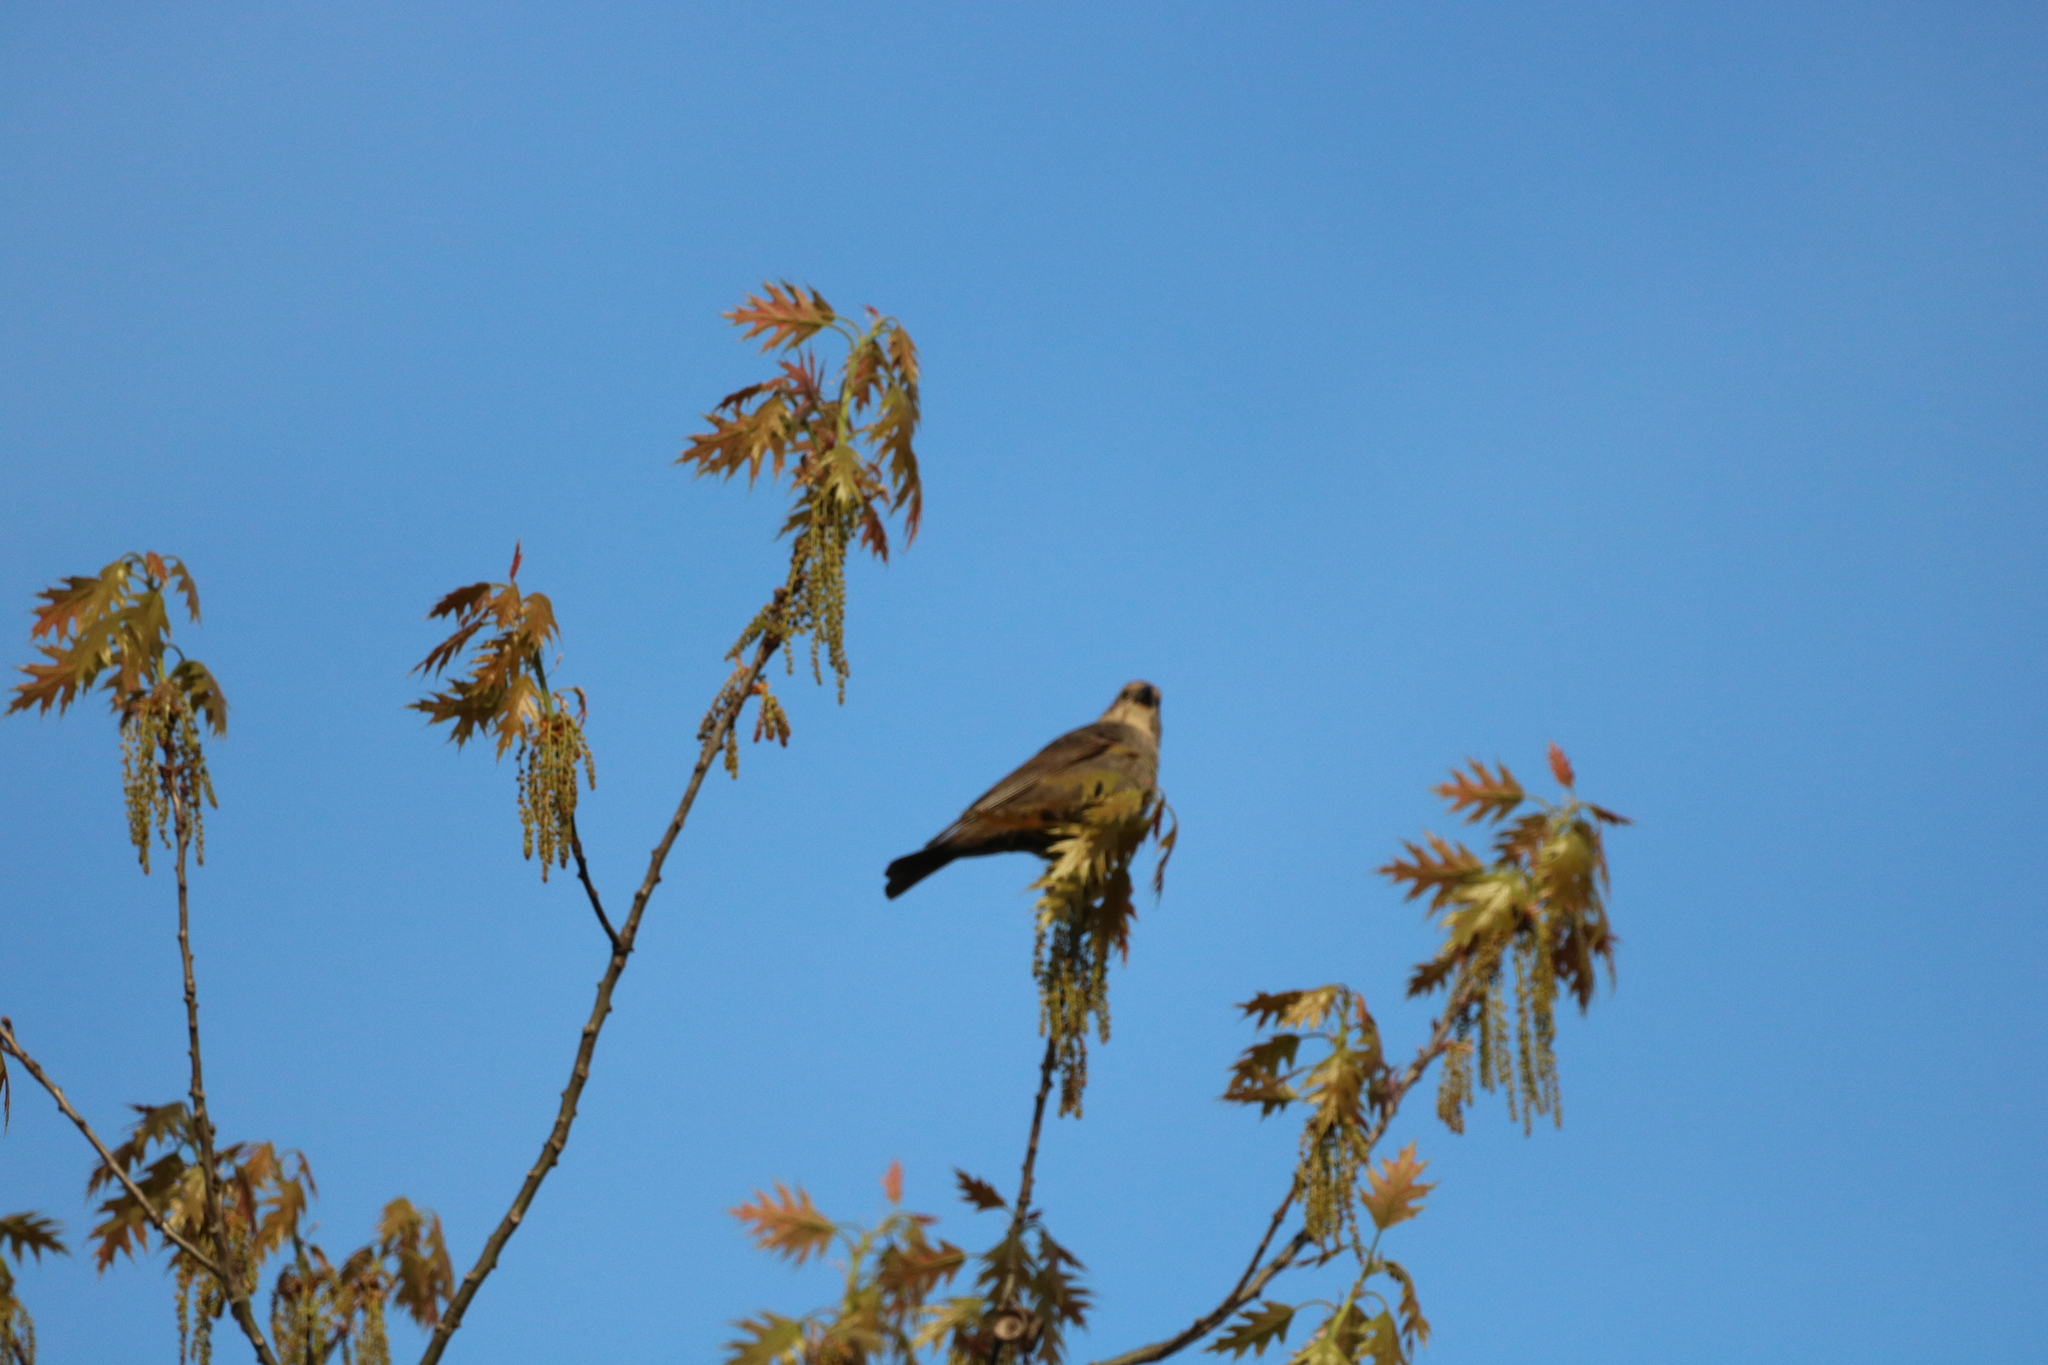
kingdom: Animalia
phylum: Chordata
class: Aves
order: Passeriformes
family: Icteridae
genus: Molothrus
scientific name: Molothrus ater
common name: Brown-headed cowbird
